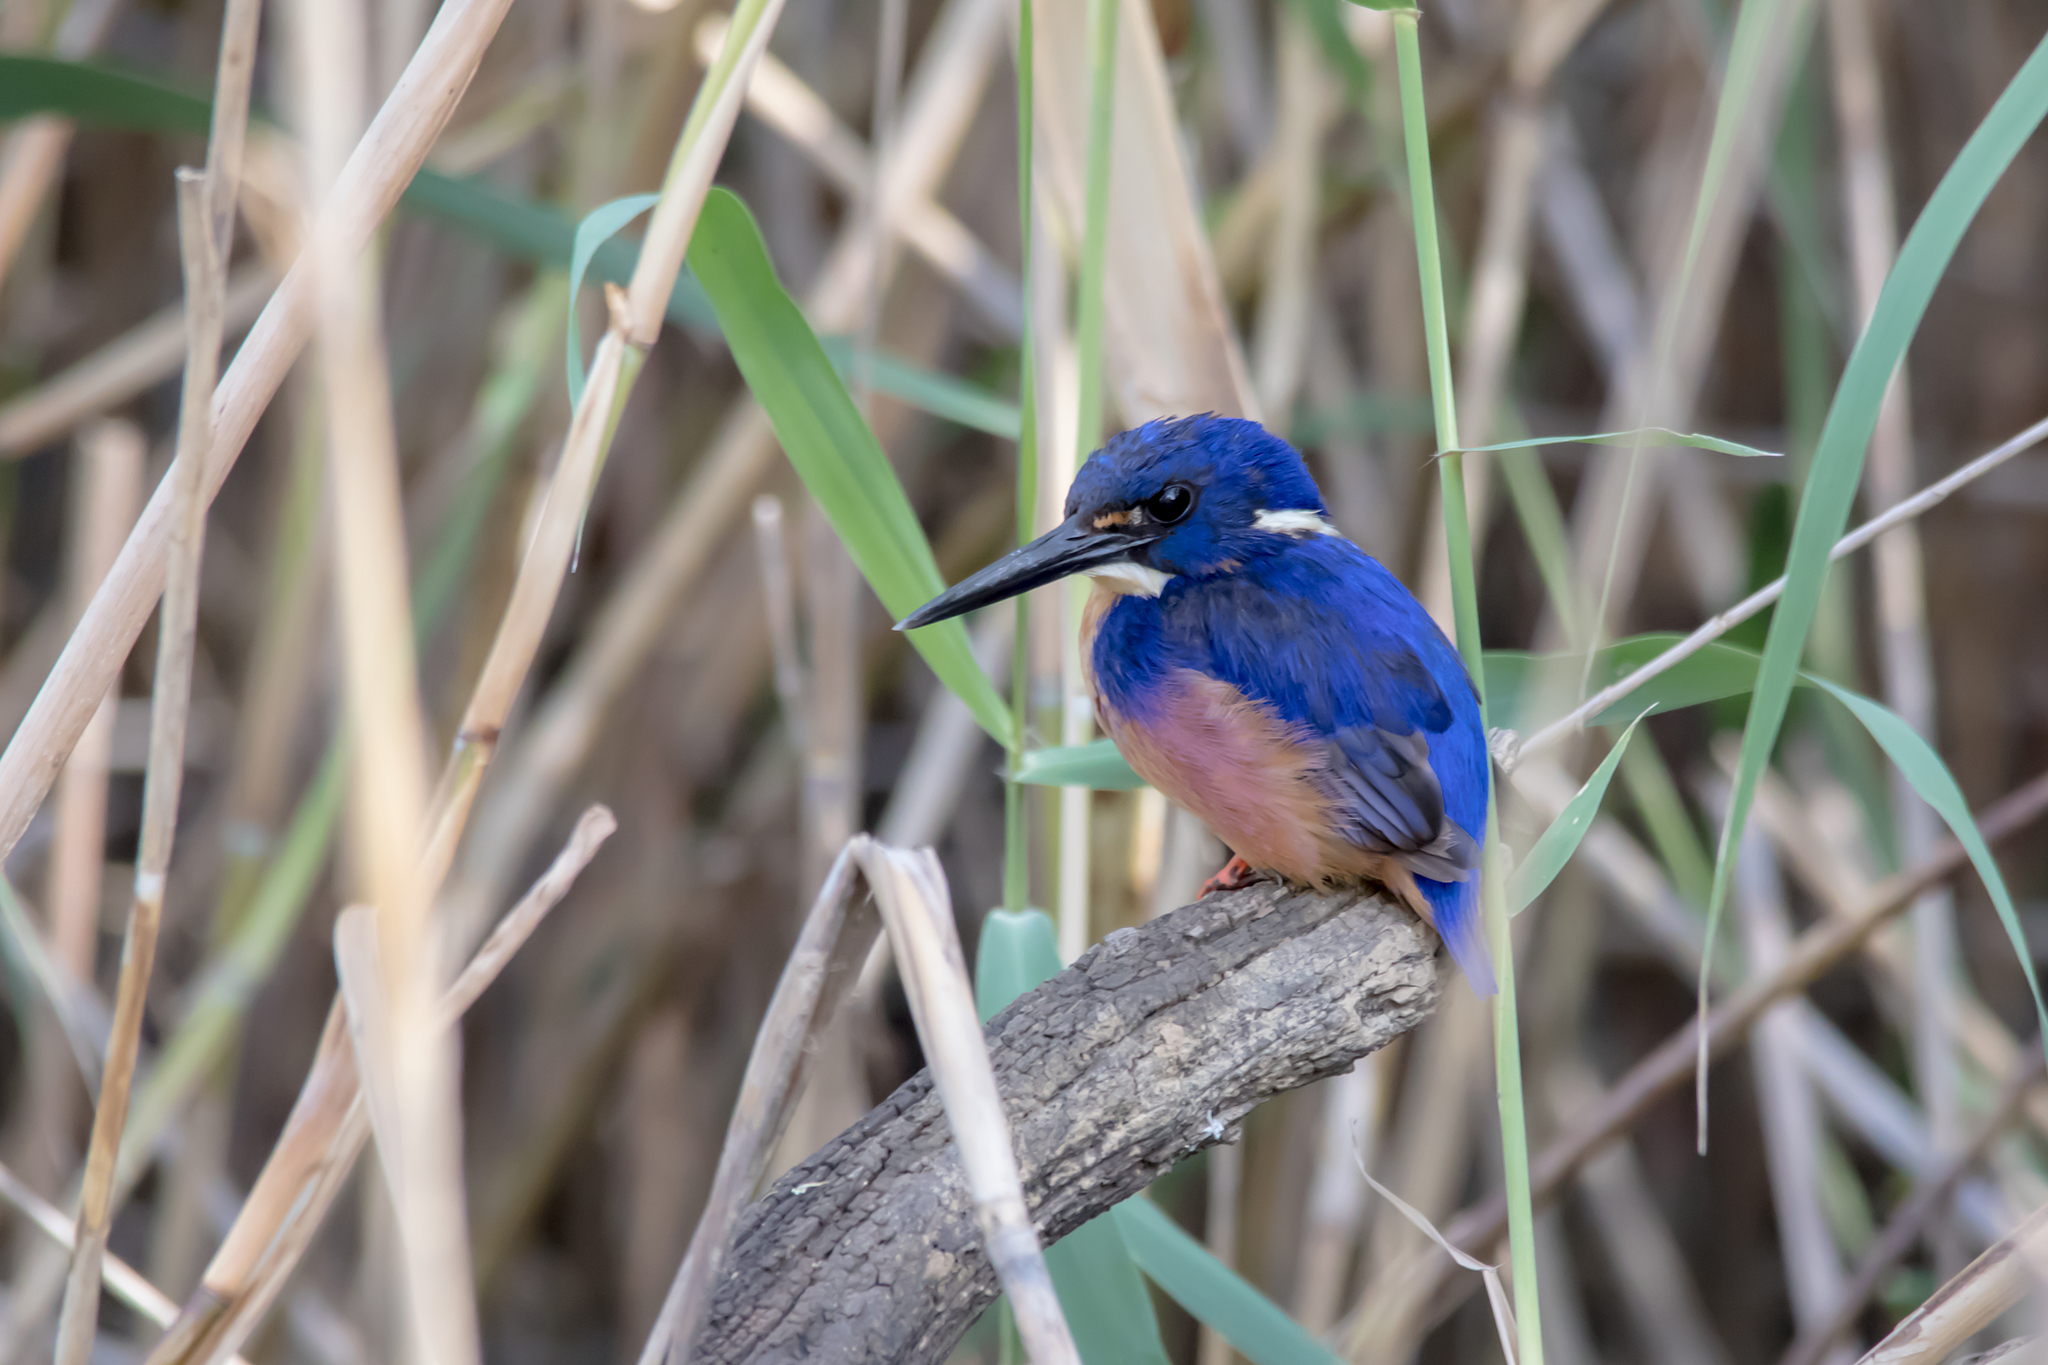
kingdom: Animalia
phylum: Chordata
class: Aves
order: Coraciiformes
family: Alcedinidae
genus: Ceyx
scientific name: Ceyx azureus
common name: Azure kingfisher
